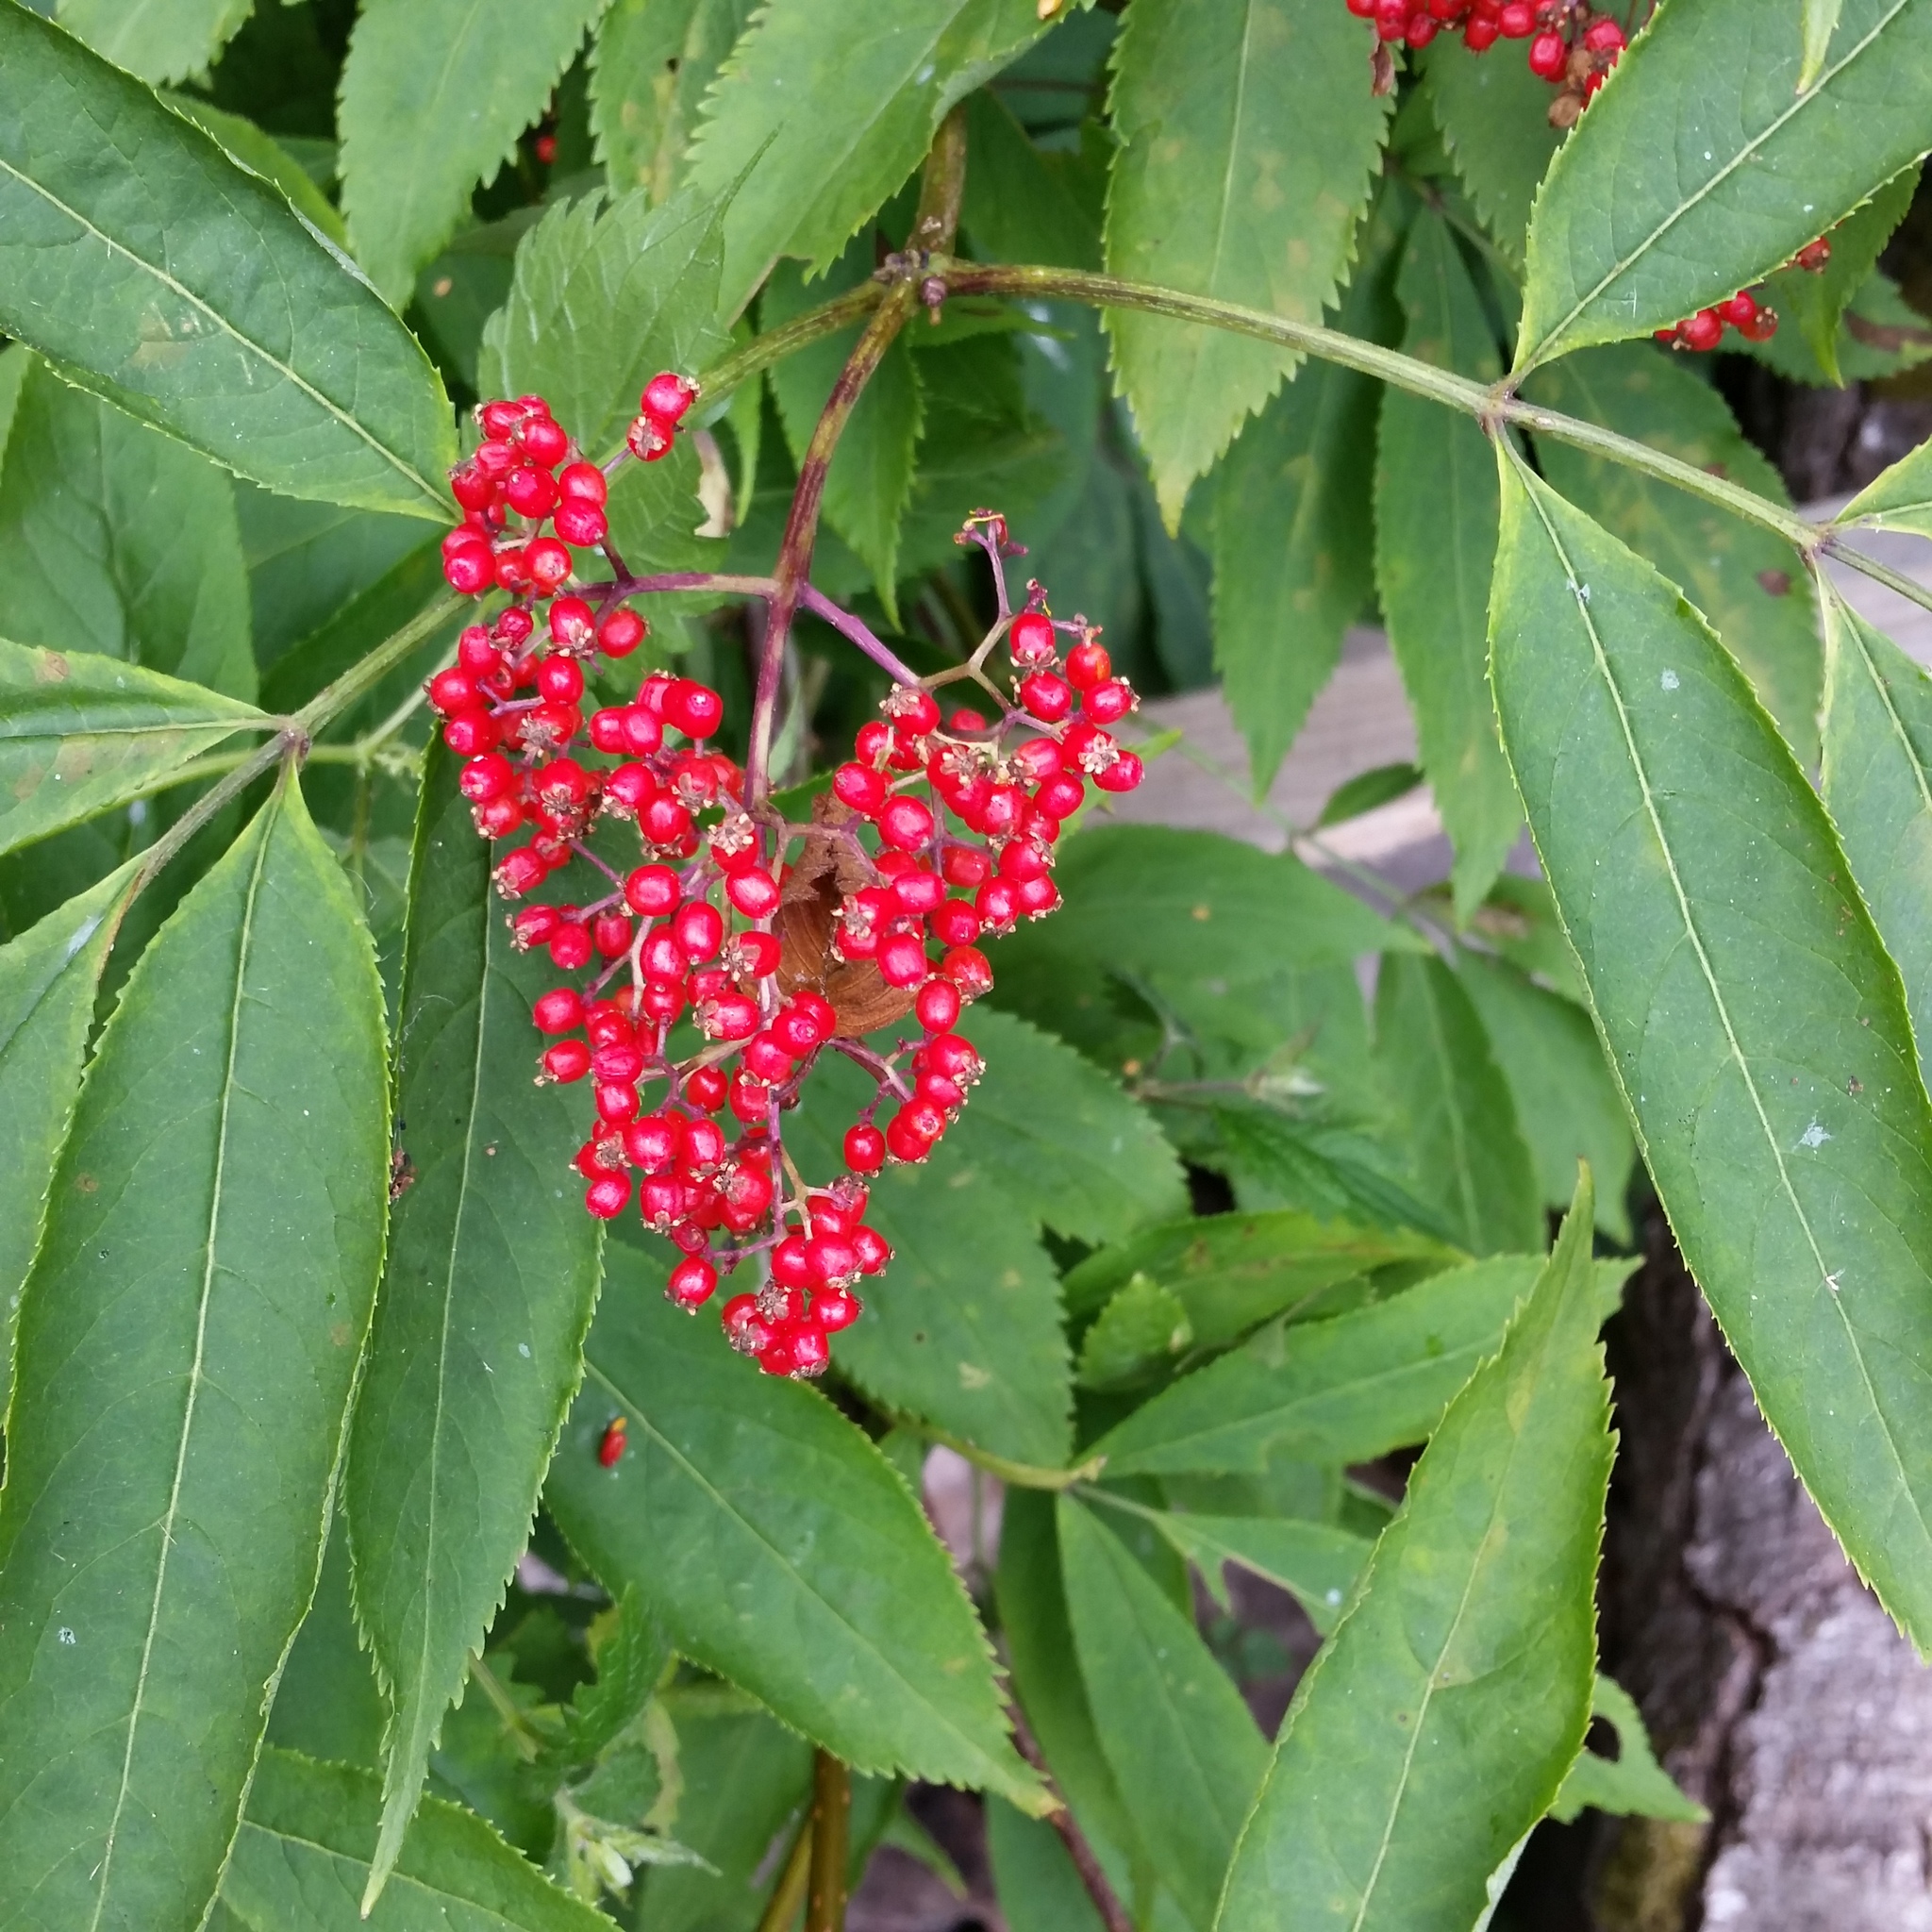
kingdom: Plantae
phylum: Tracheophyta
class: Magnoliopsida
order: Dipsacales
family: Viburnaceae
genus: Sambucus
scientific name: Sambucus racemosa
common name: Red-berried elder
